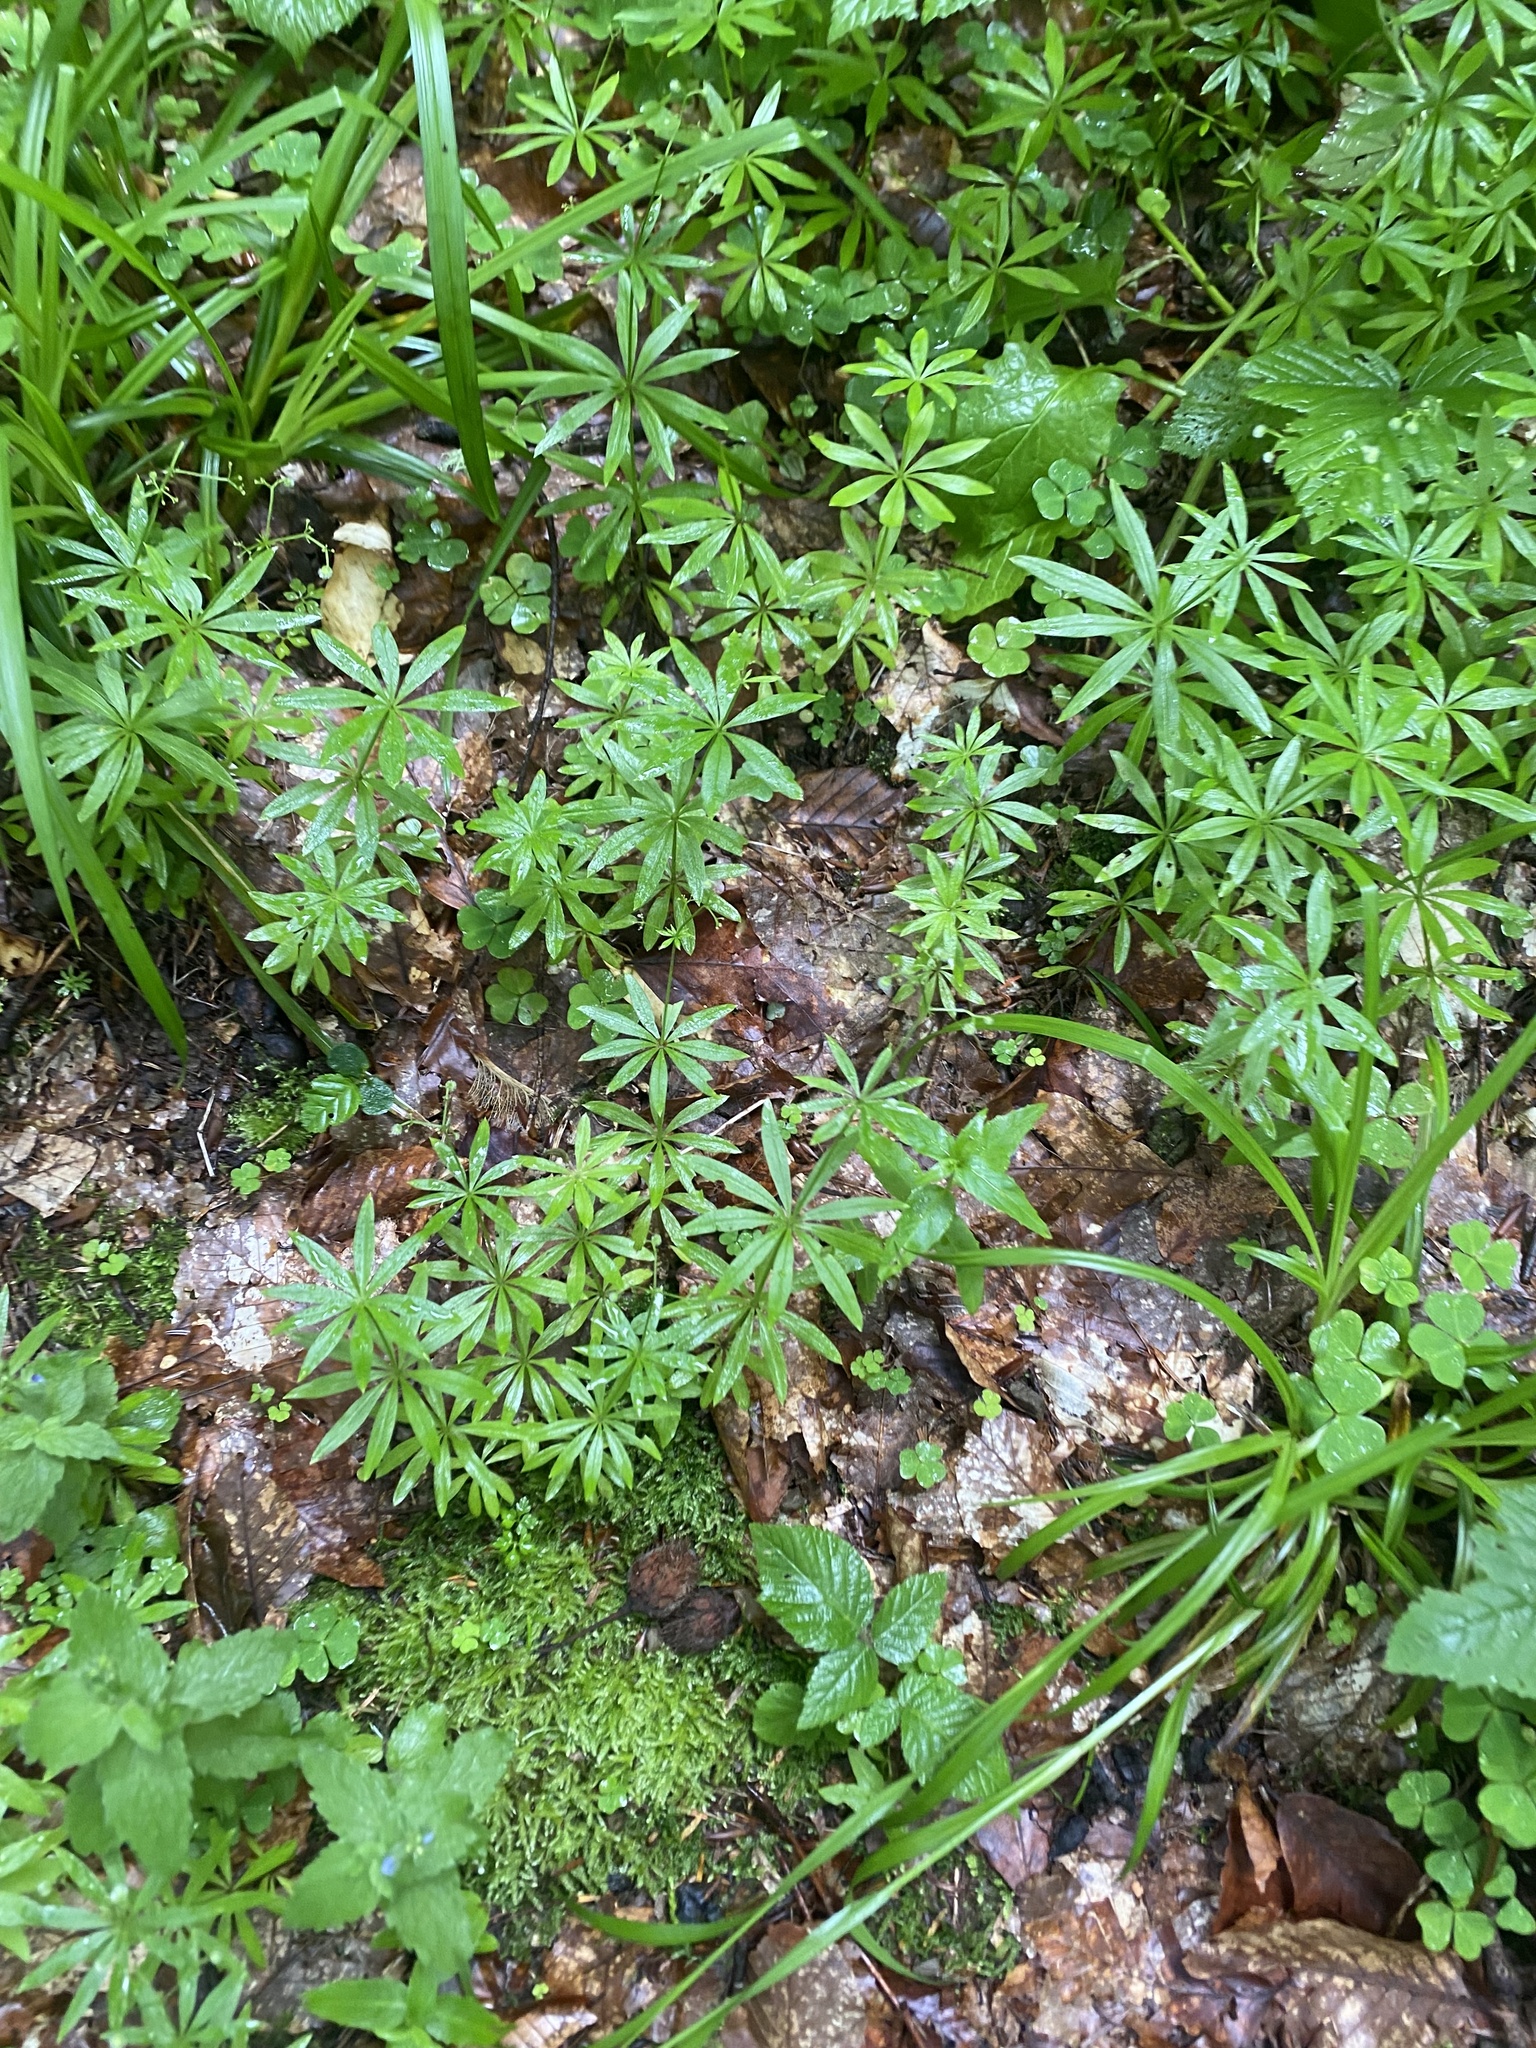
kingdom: Plantae
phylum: Tracheophyta
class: Magnoliopsida
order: Gentianales
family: Rubiaceae
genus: Galium
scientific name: Galium odoratum
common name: Sweet woodruff
